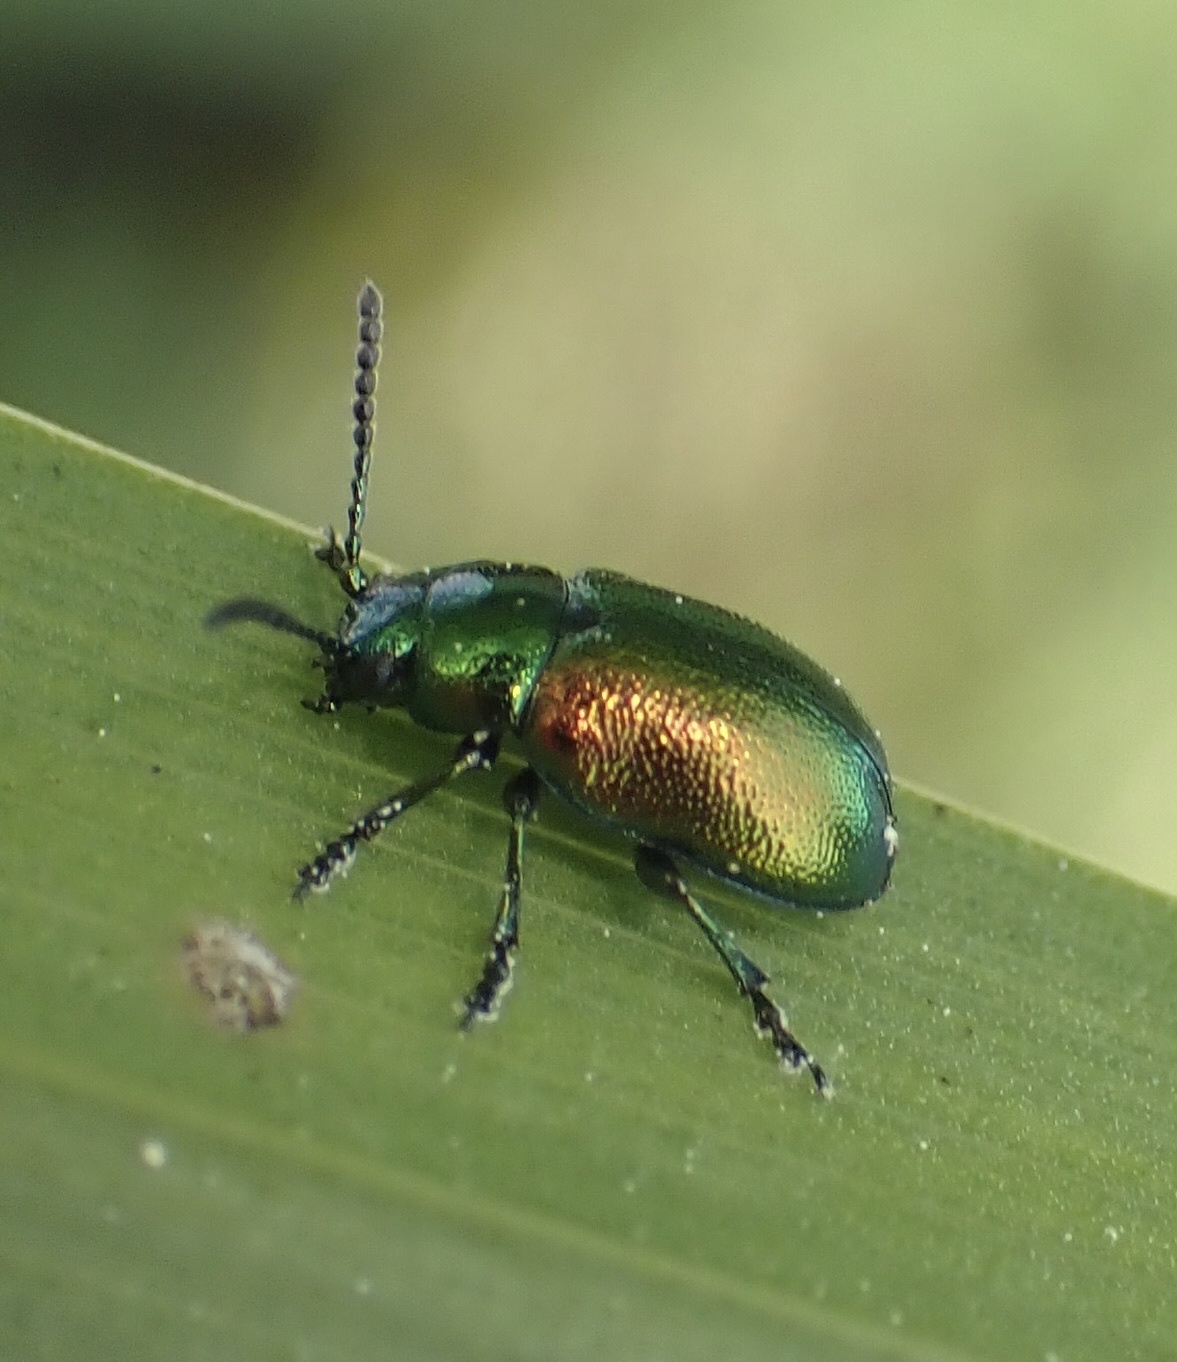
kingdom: Animalia
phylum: Arthropoda
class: Insecta
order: Coleoptera
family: Chrysomelidae
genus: Gastrophysa
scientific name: Gastrophysa viridula
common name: Green dock beetle
